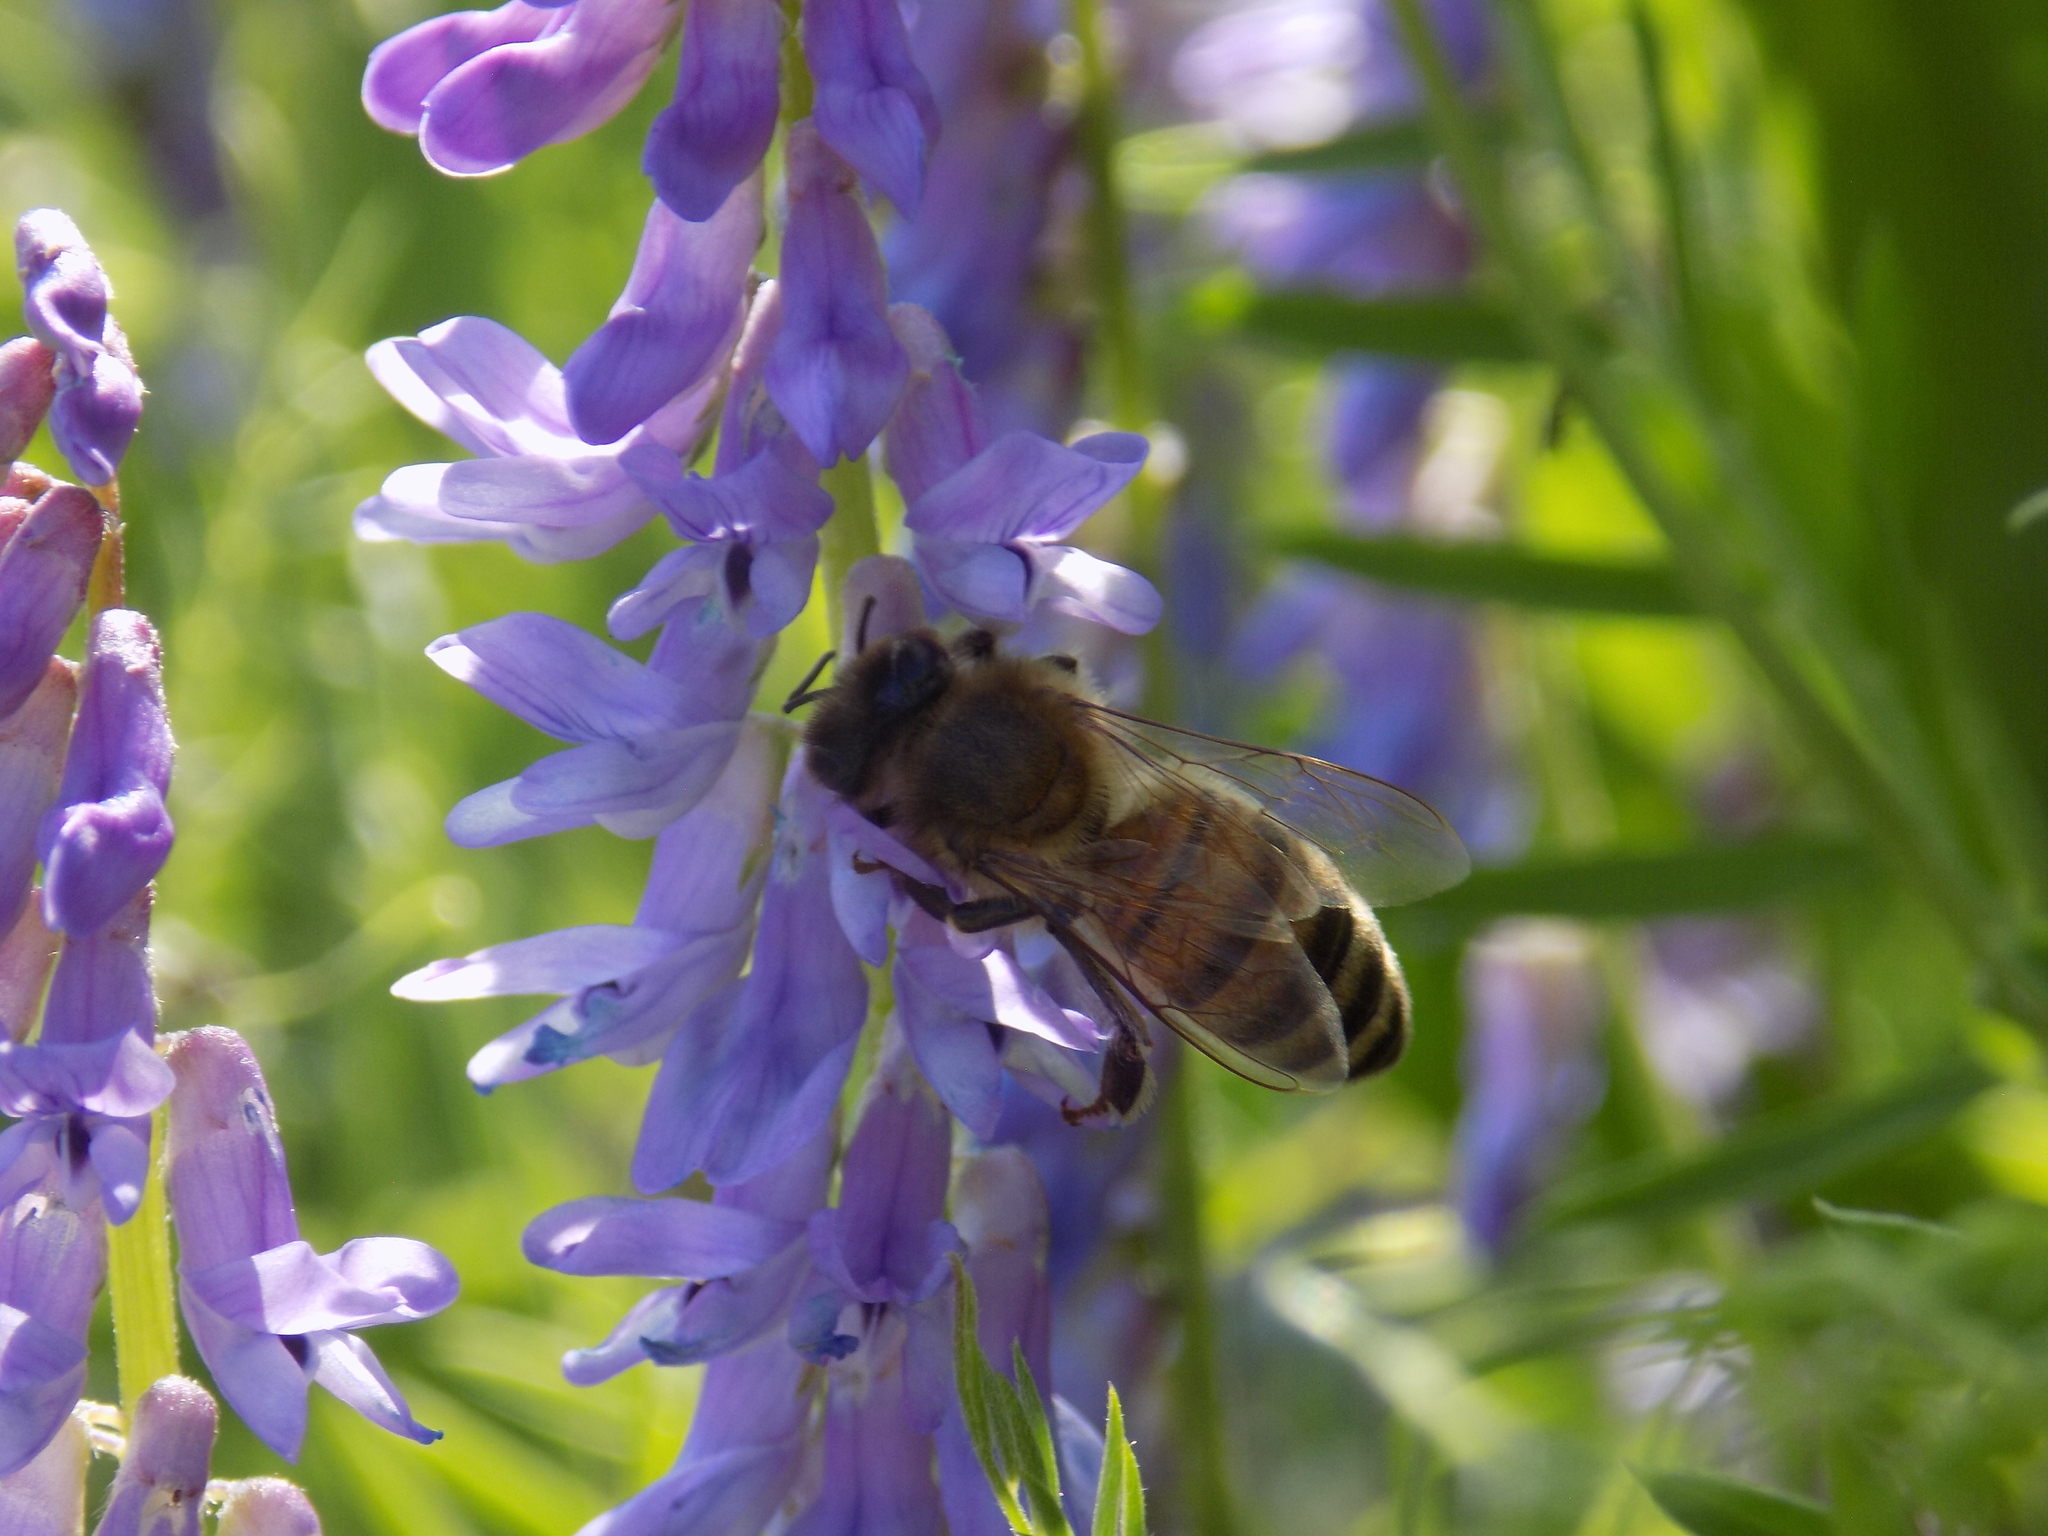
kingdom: Animalia
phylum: Arthropoda
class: Insecta
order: Hymenoptera
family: Apidae
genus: Apis
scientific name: Apis mellifera
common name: Honey bee
